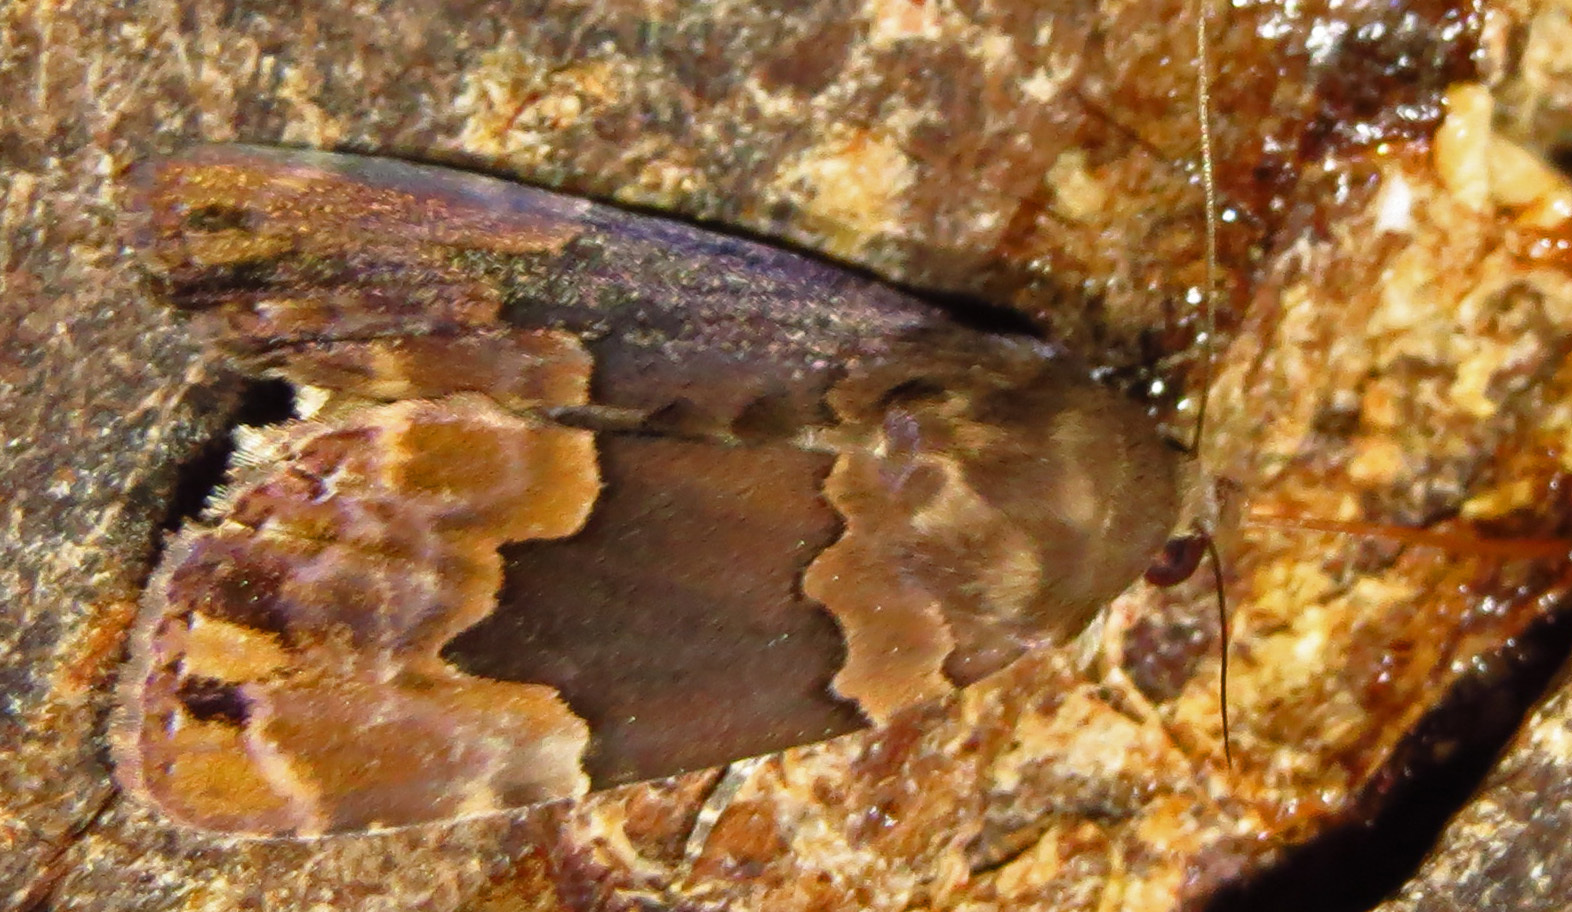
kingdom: Animalia
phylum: Arthropoda
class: Insecta
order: Lepidoptera
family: Erebidae
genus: Dinumma
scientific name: Dinumma deponens
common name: Purplish moth
